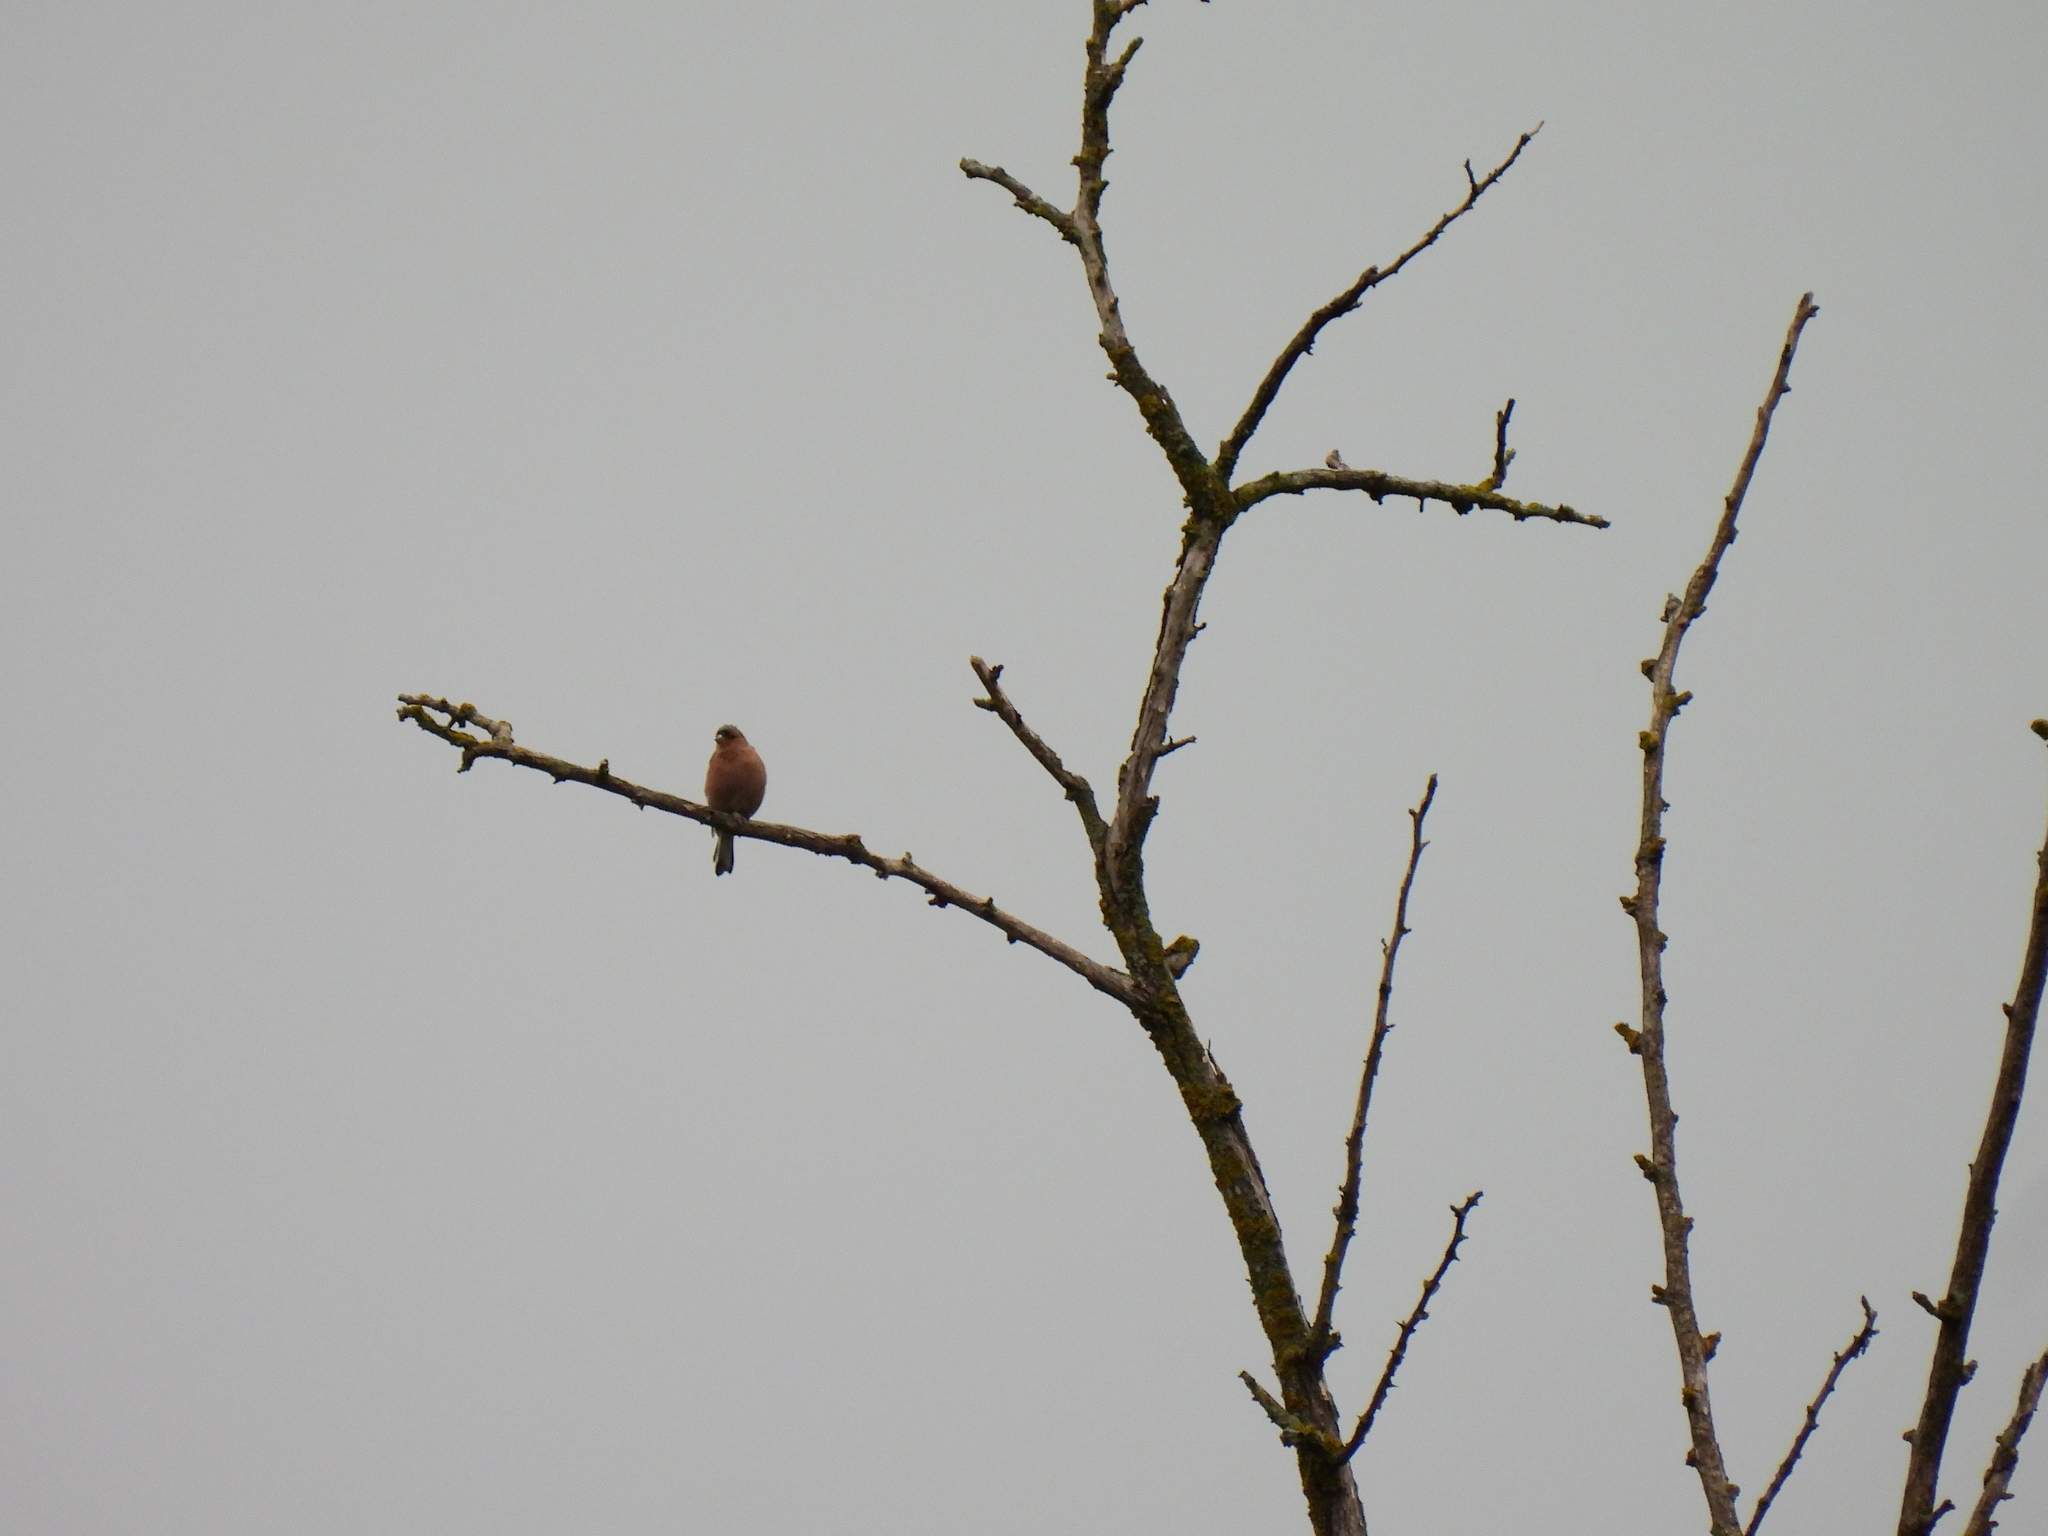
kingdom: Animalia
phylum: Chordata
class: Aves
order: Passeriformes
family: Fringillidae
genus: Fringilla
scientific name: Fringilla coelebs
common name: Common chaffinch
